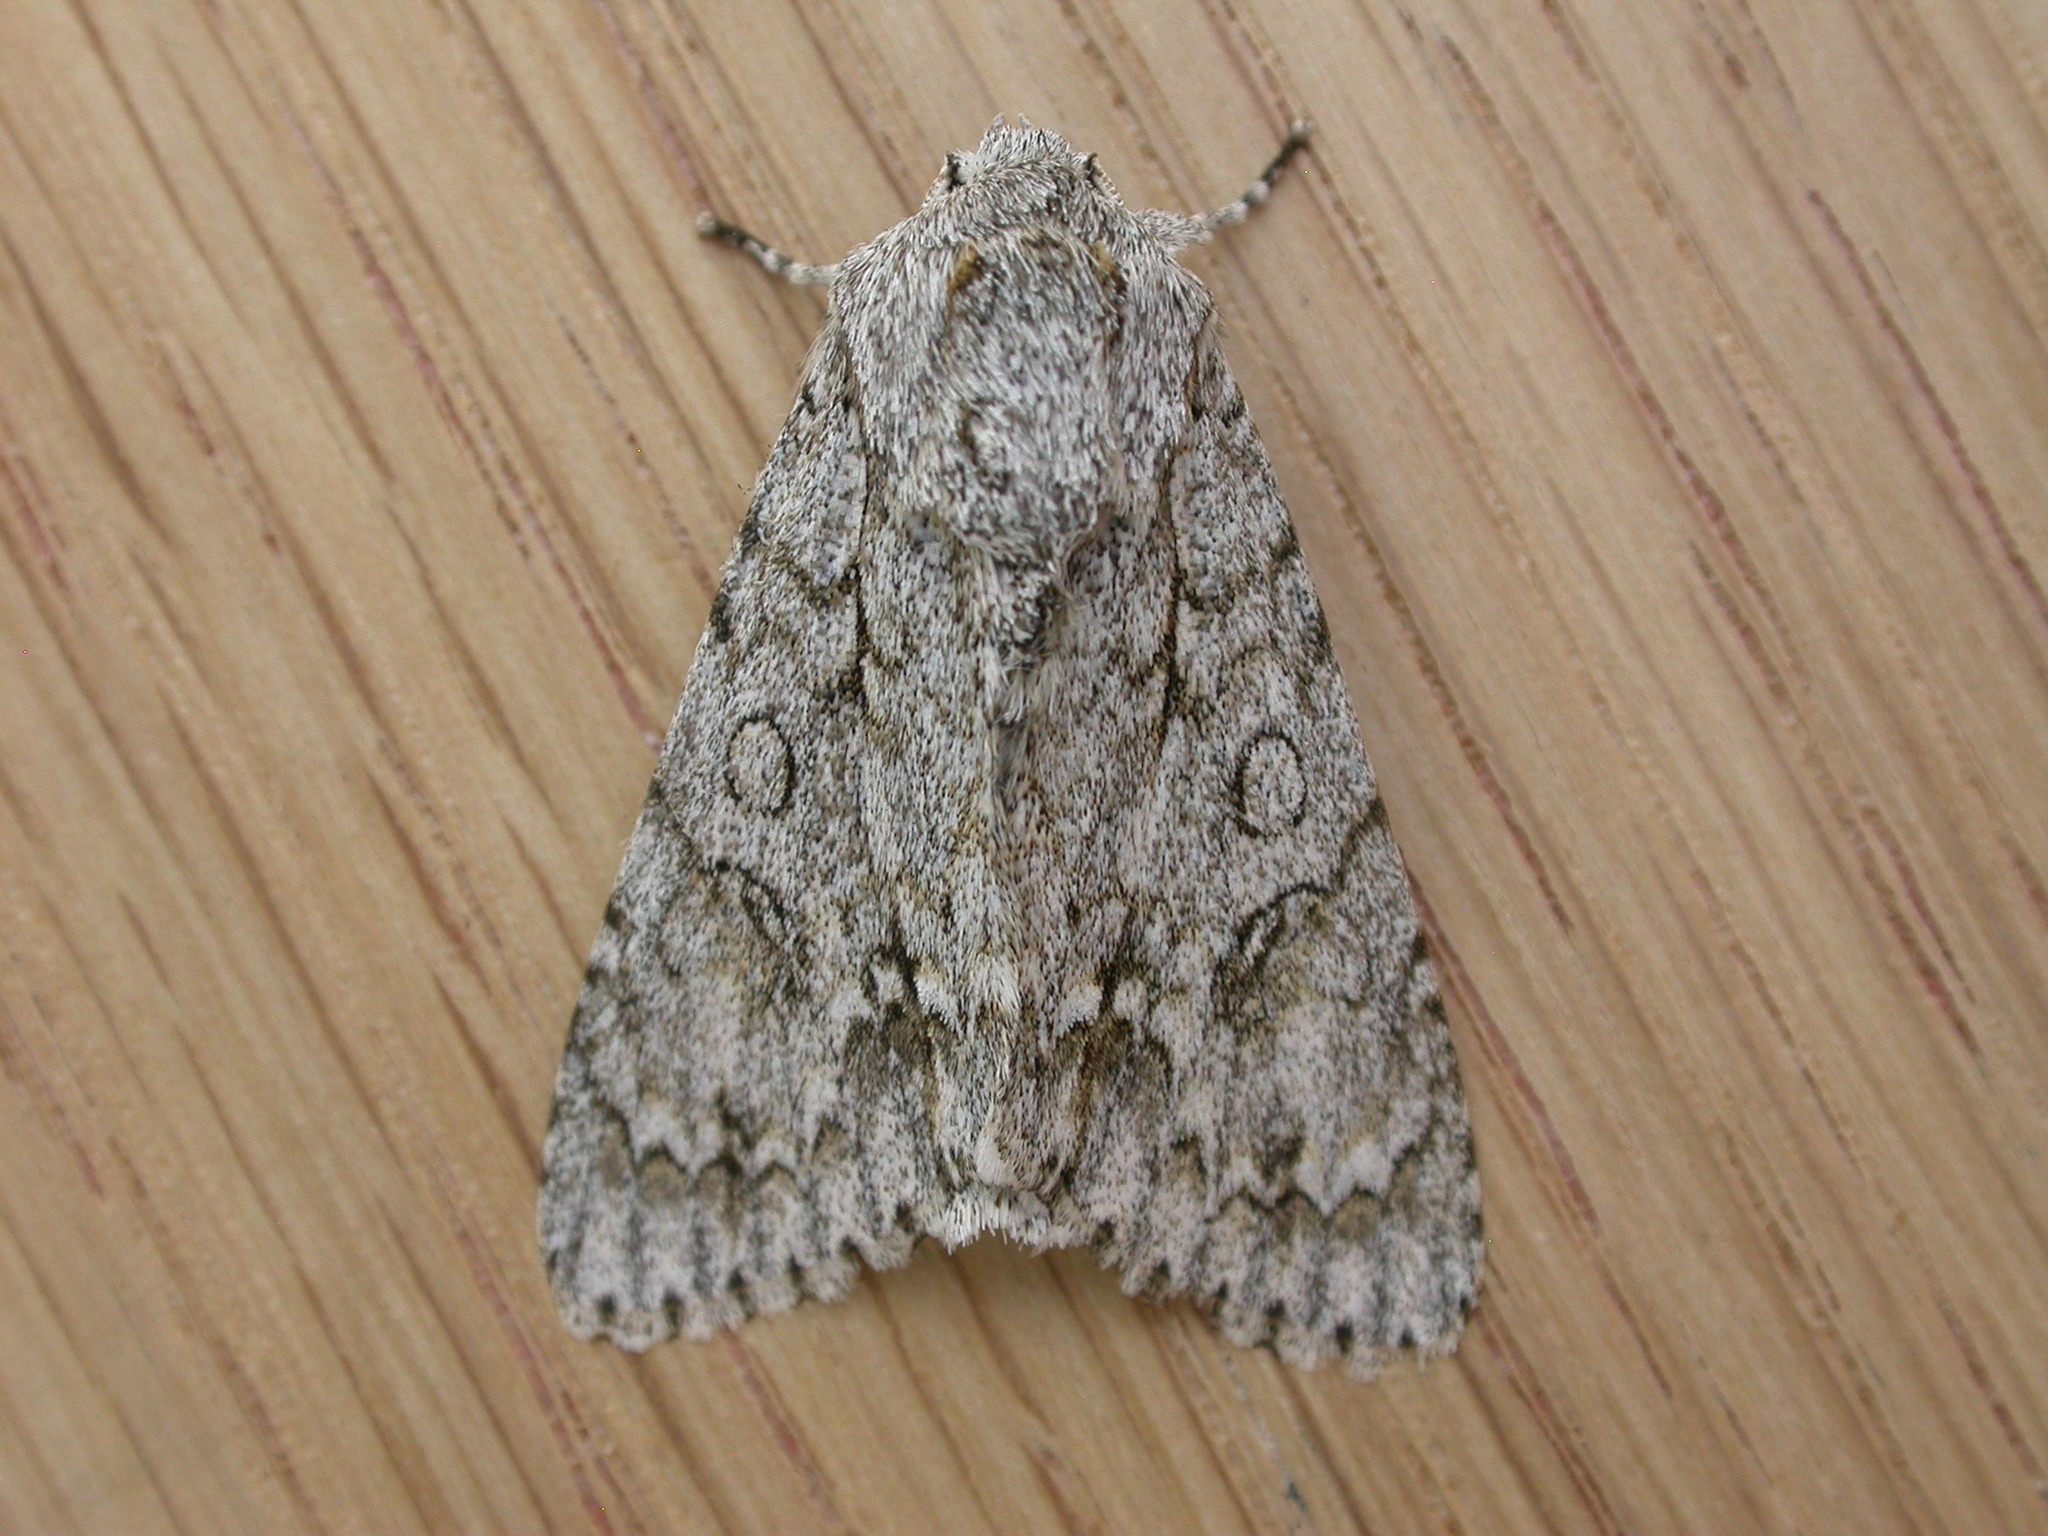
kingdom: Animalia
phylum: Arthropoda
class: Insecta
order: Lepidoptera
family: Noctuidae
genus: Acronicta
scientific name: Acronicta aceris
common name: Sycamore
